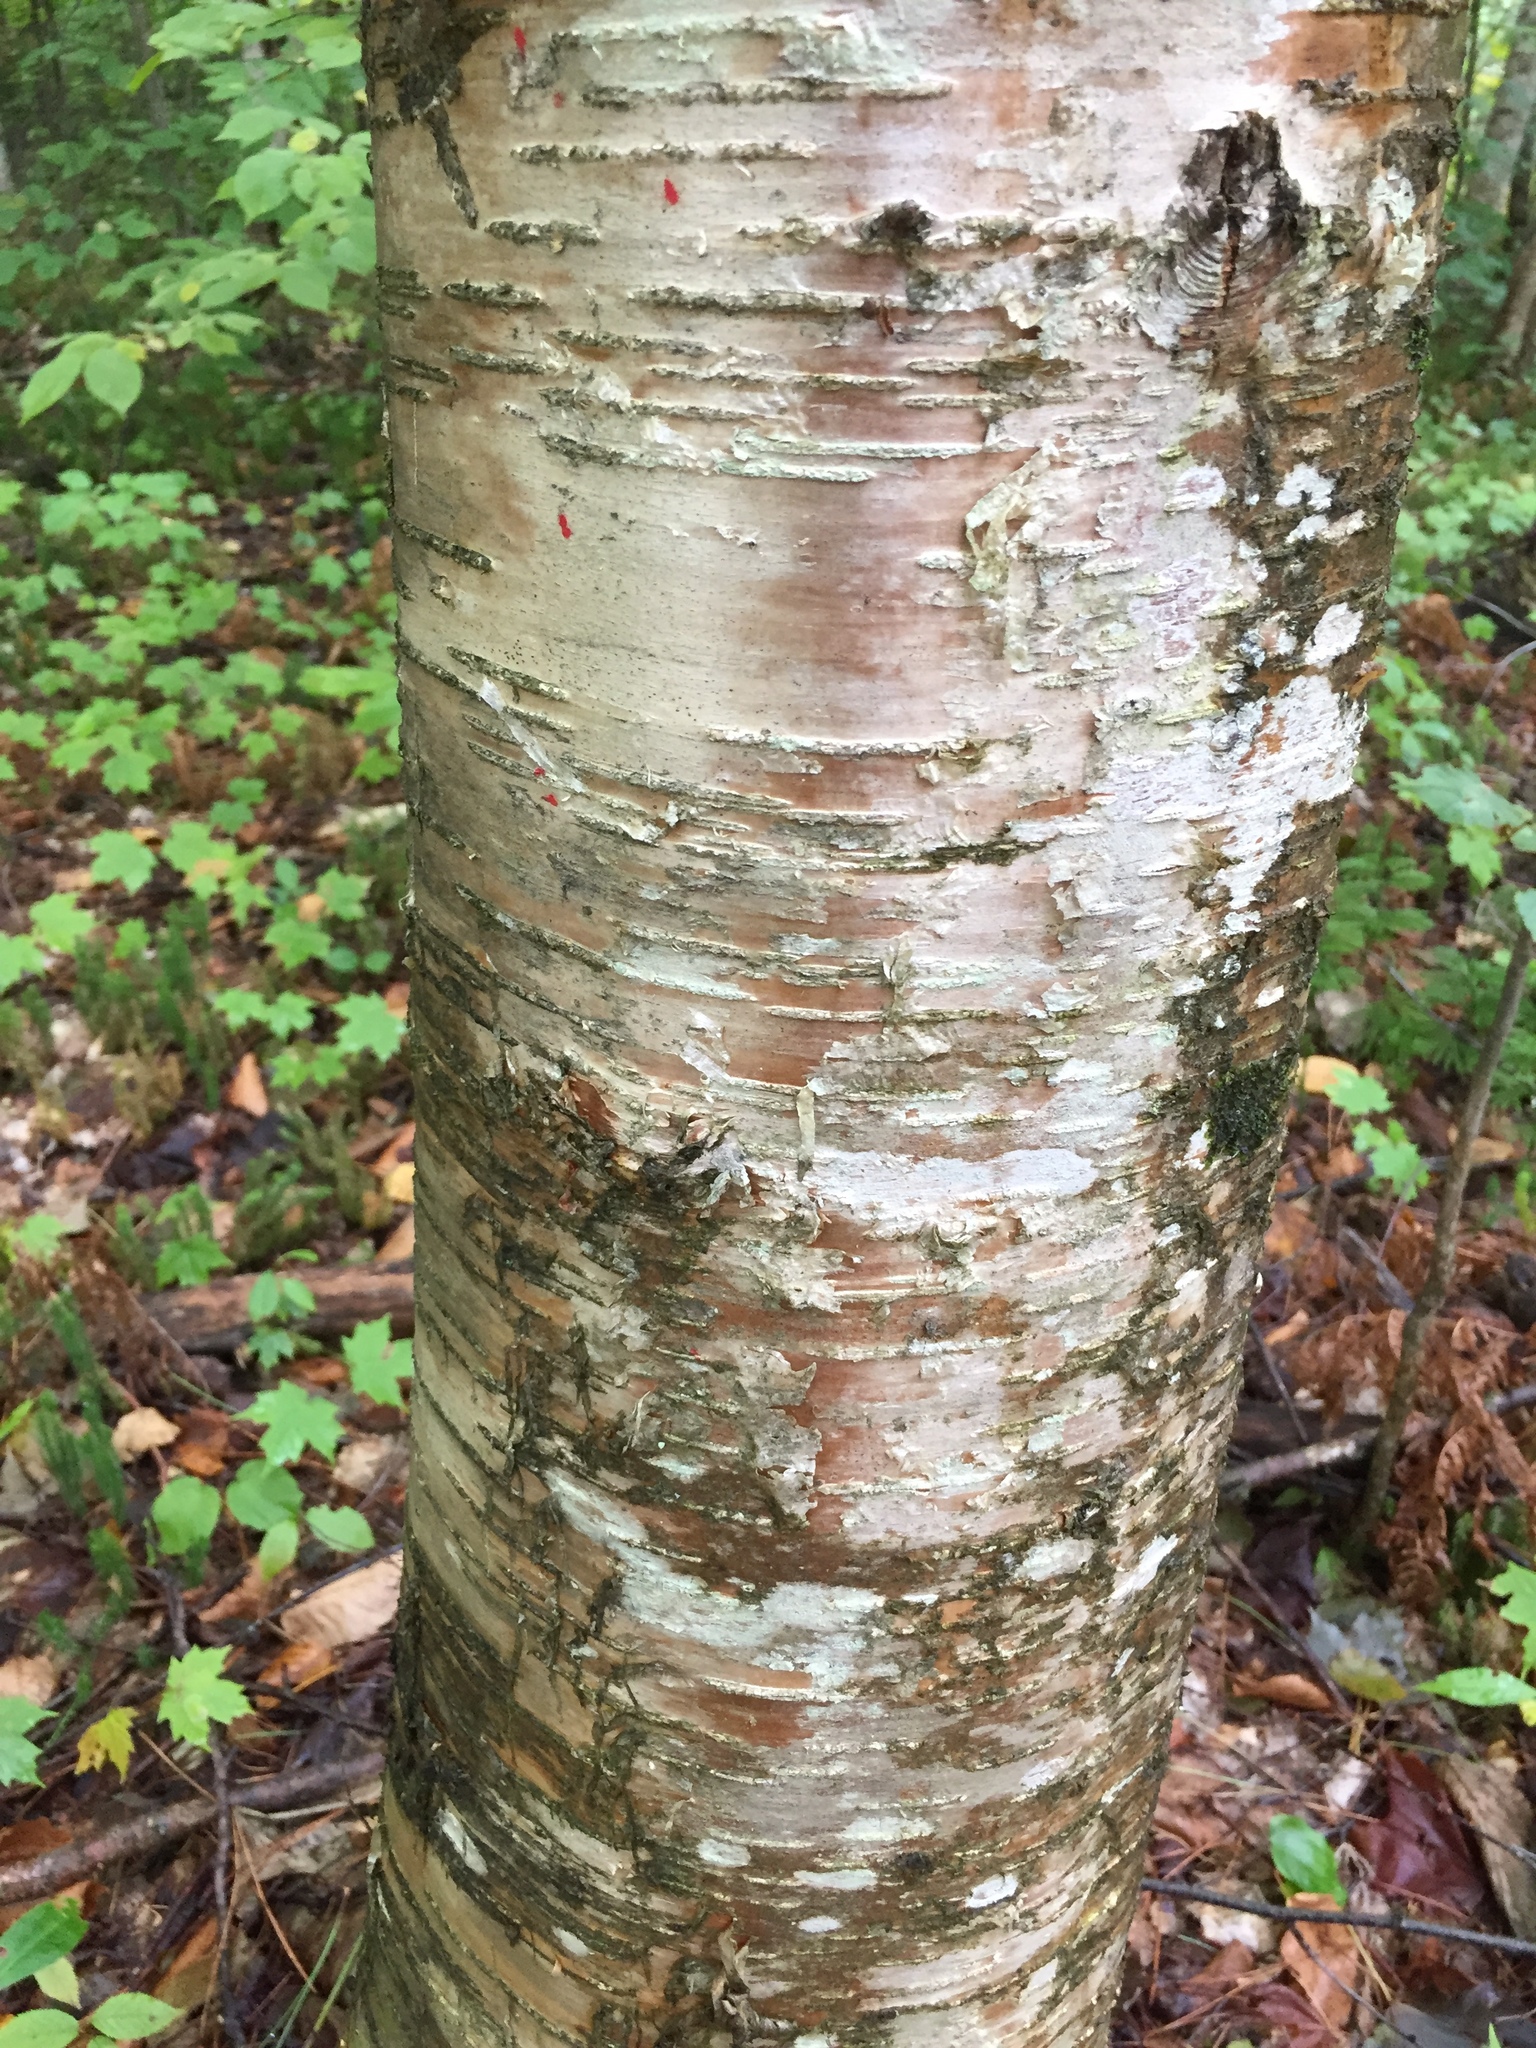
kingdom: Plantae
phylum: Tracheophyta
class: Magnoliopsida
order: Fagales
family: Betulaceae
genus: Betula
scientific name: Betula alleghaniensis
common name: Yellow birch
